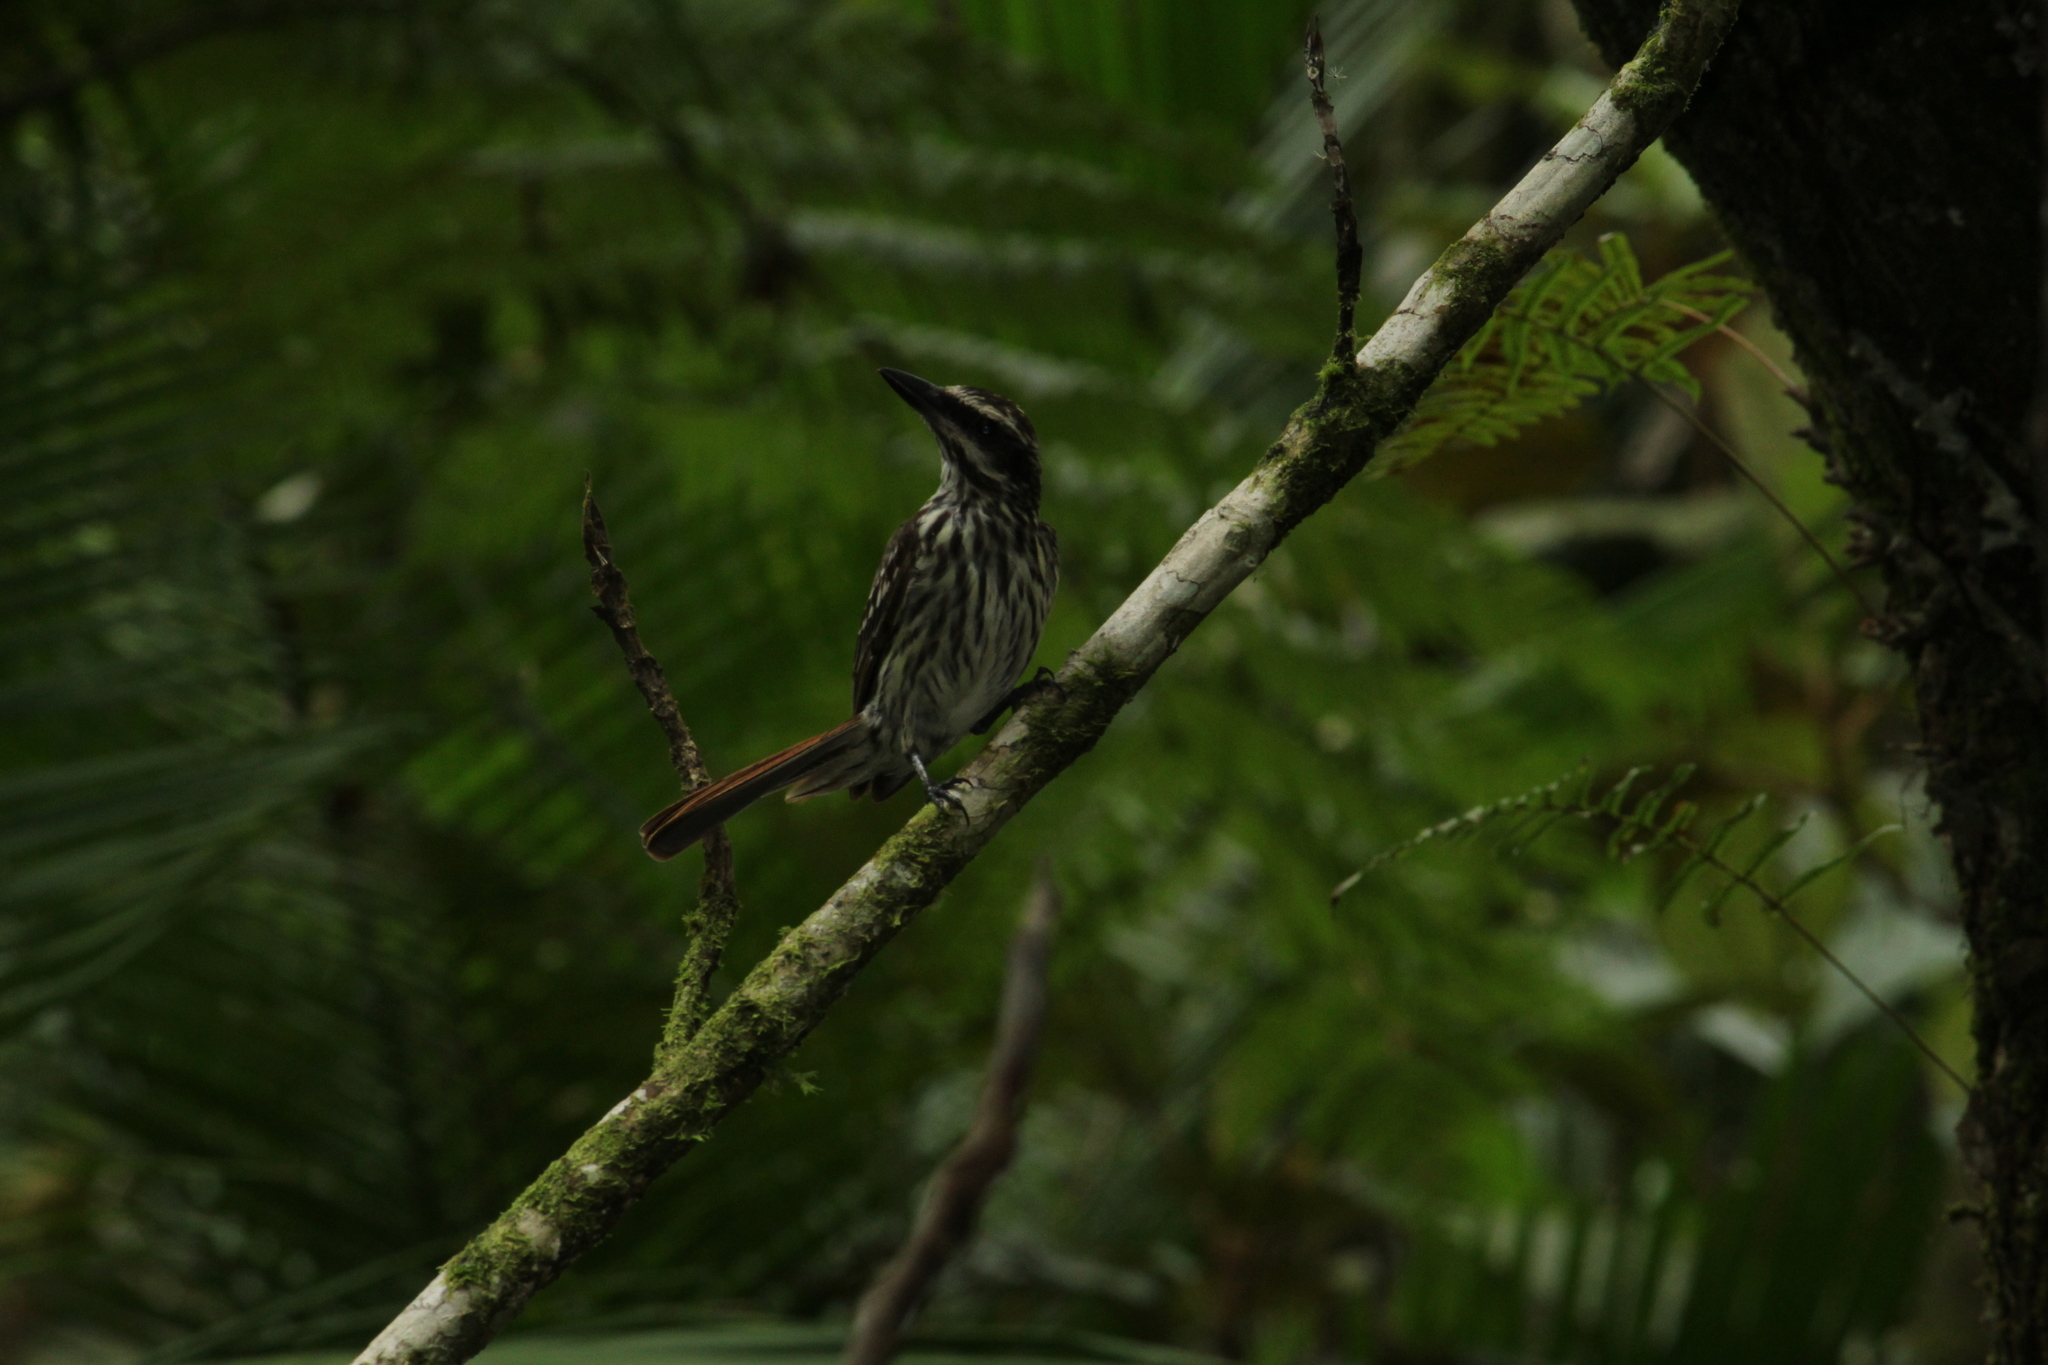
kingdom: Animalia
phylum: Chordata
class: Aves
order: Passeriformes
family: Tyrannidae
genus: Myiodynastes
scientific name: Myiodynastes maculatus
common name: Streaked flycatcher
